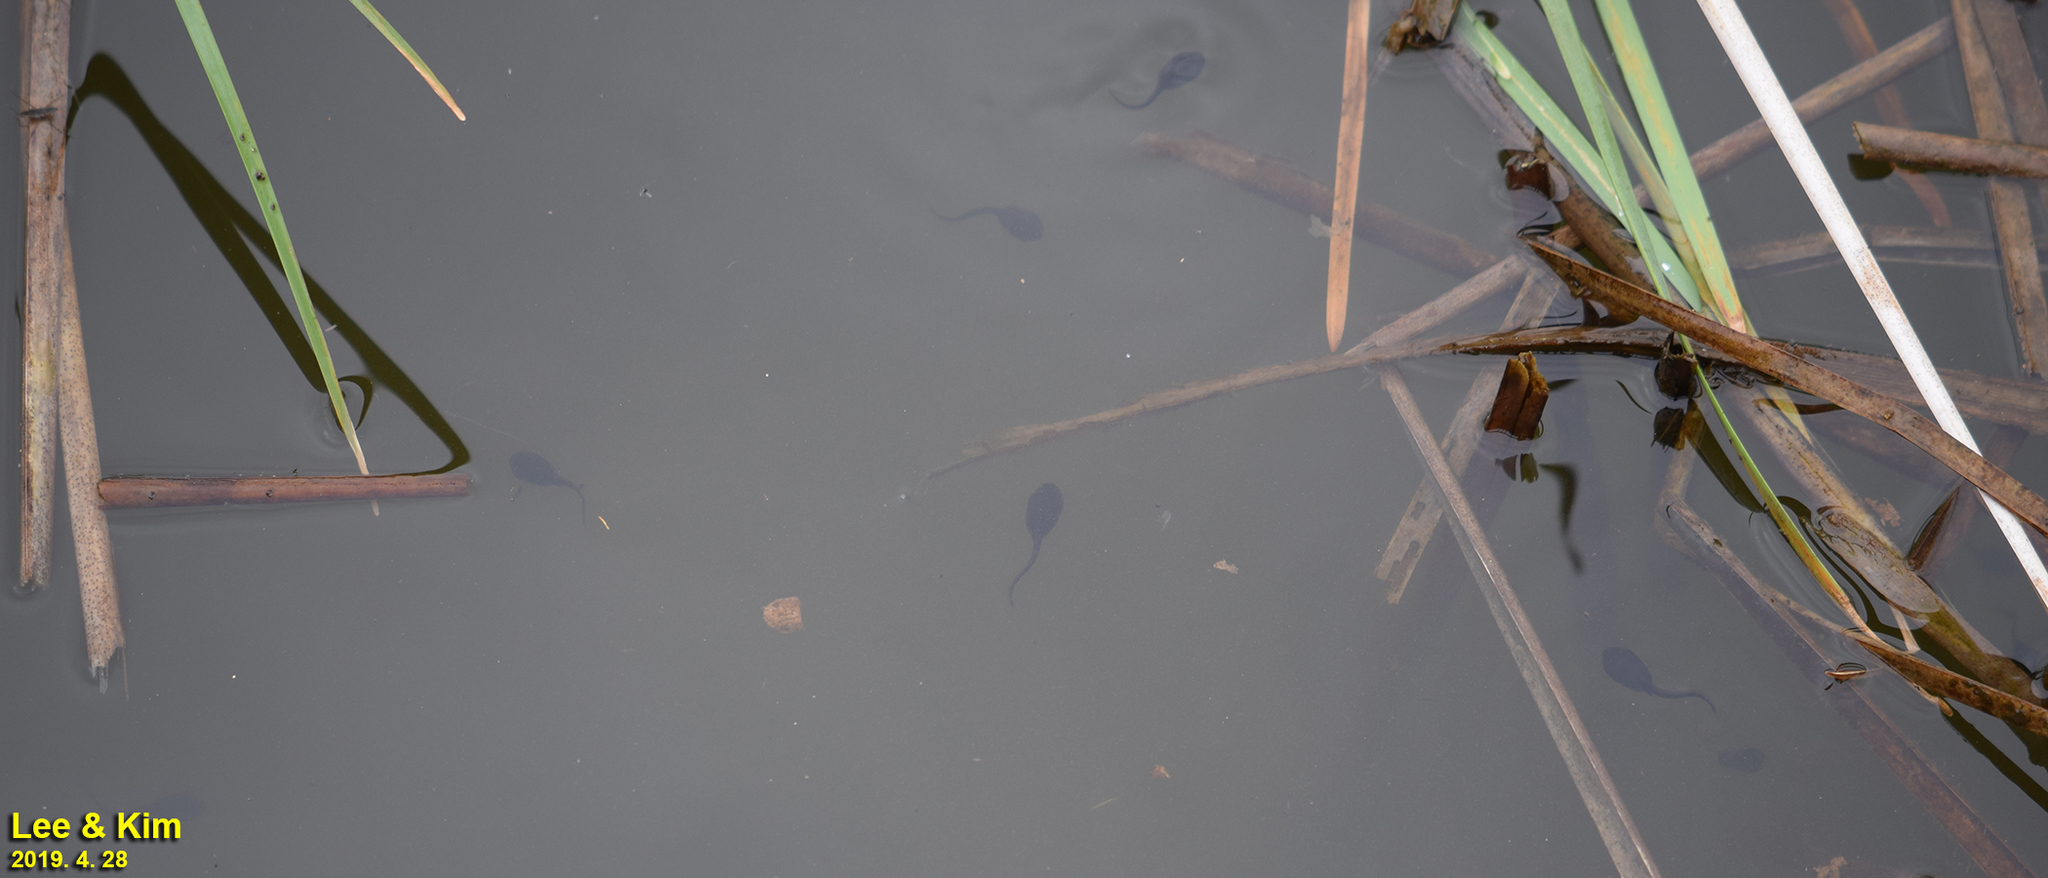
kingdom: Animalia
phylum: Chordata
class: Amphibia
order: Anura
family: Bufonidae
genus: Bufo
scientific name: Bufo gargarizans
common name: Asiatic toad
